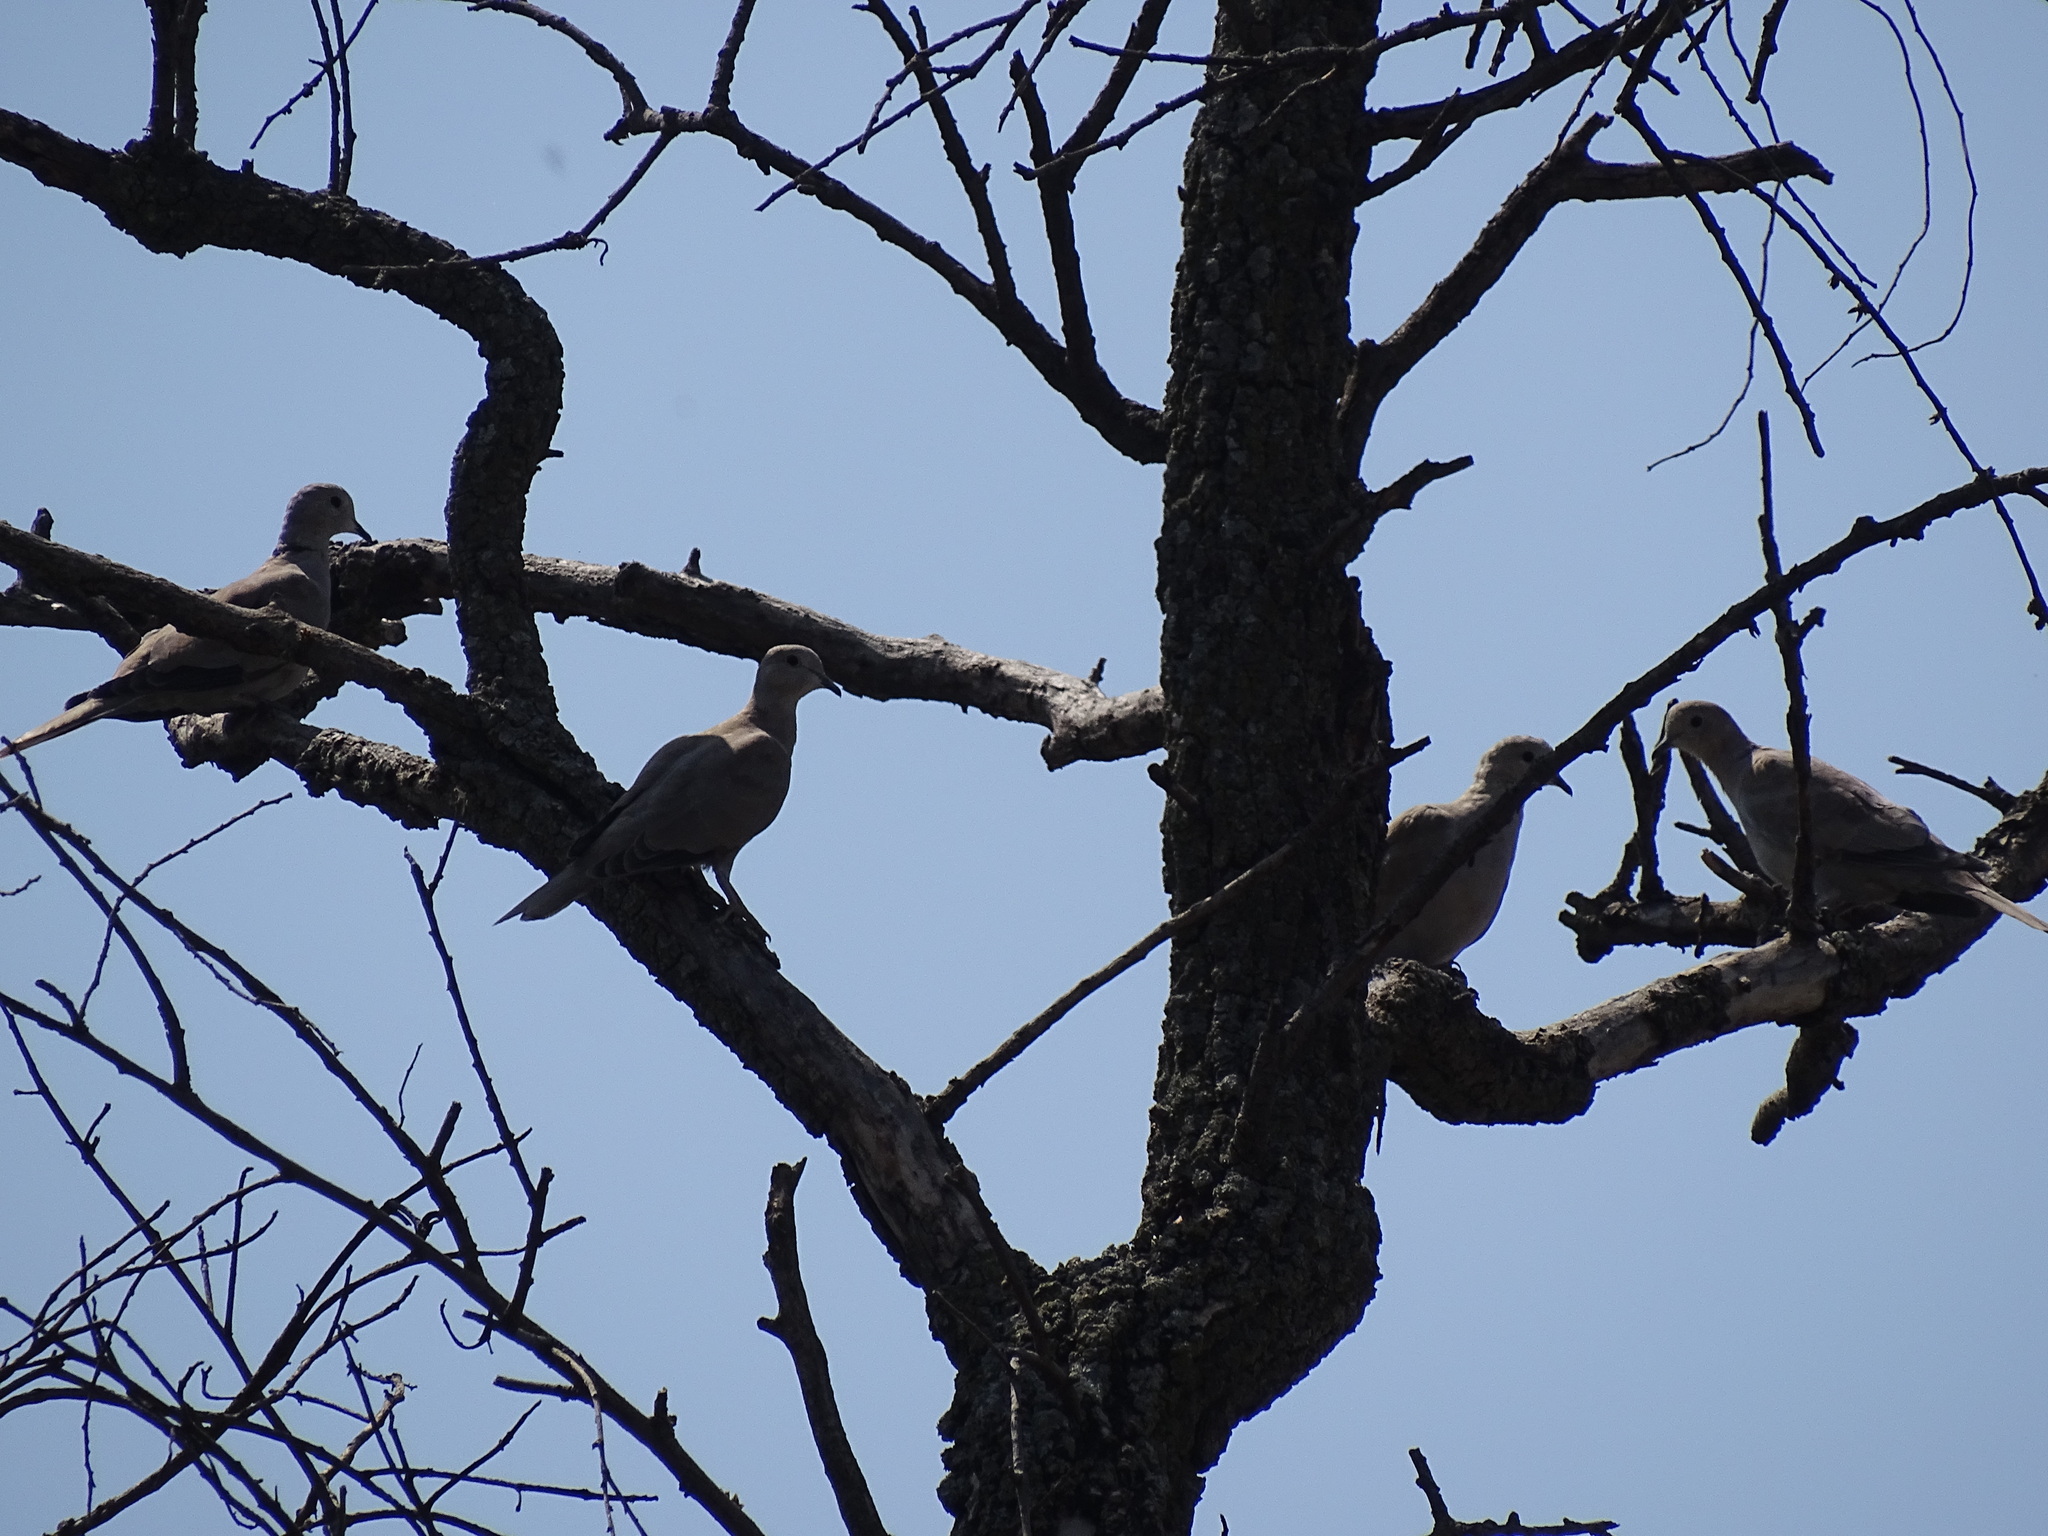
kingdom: Animalia
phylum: Chordata
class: Aves
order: Columbiformes
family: Columbidae
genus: Streptopelia
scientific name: Streptopelia decaocto
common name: Eurasian collared dove
